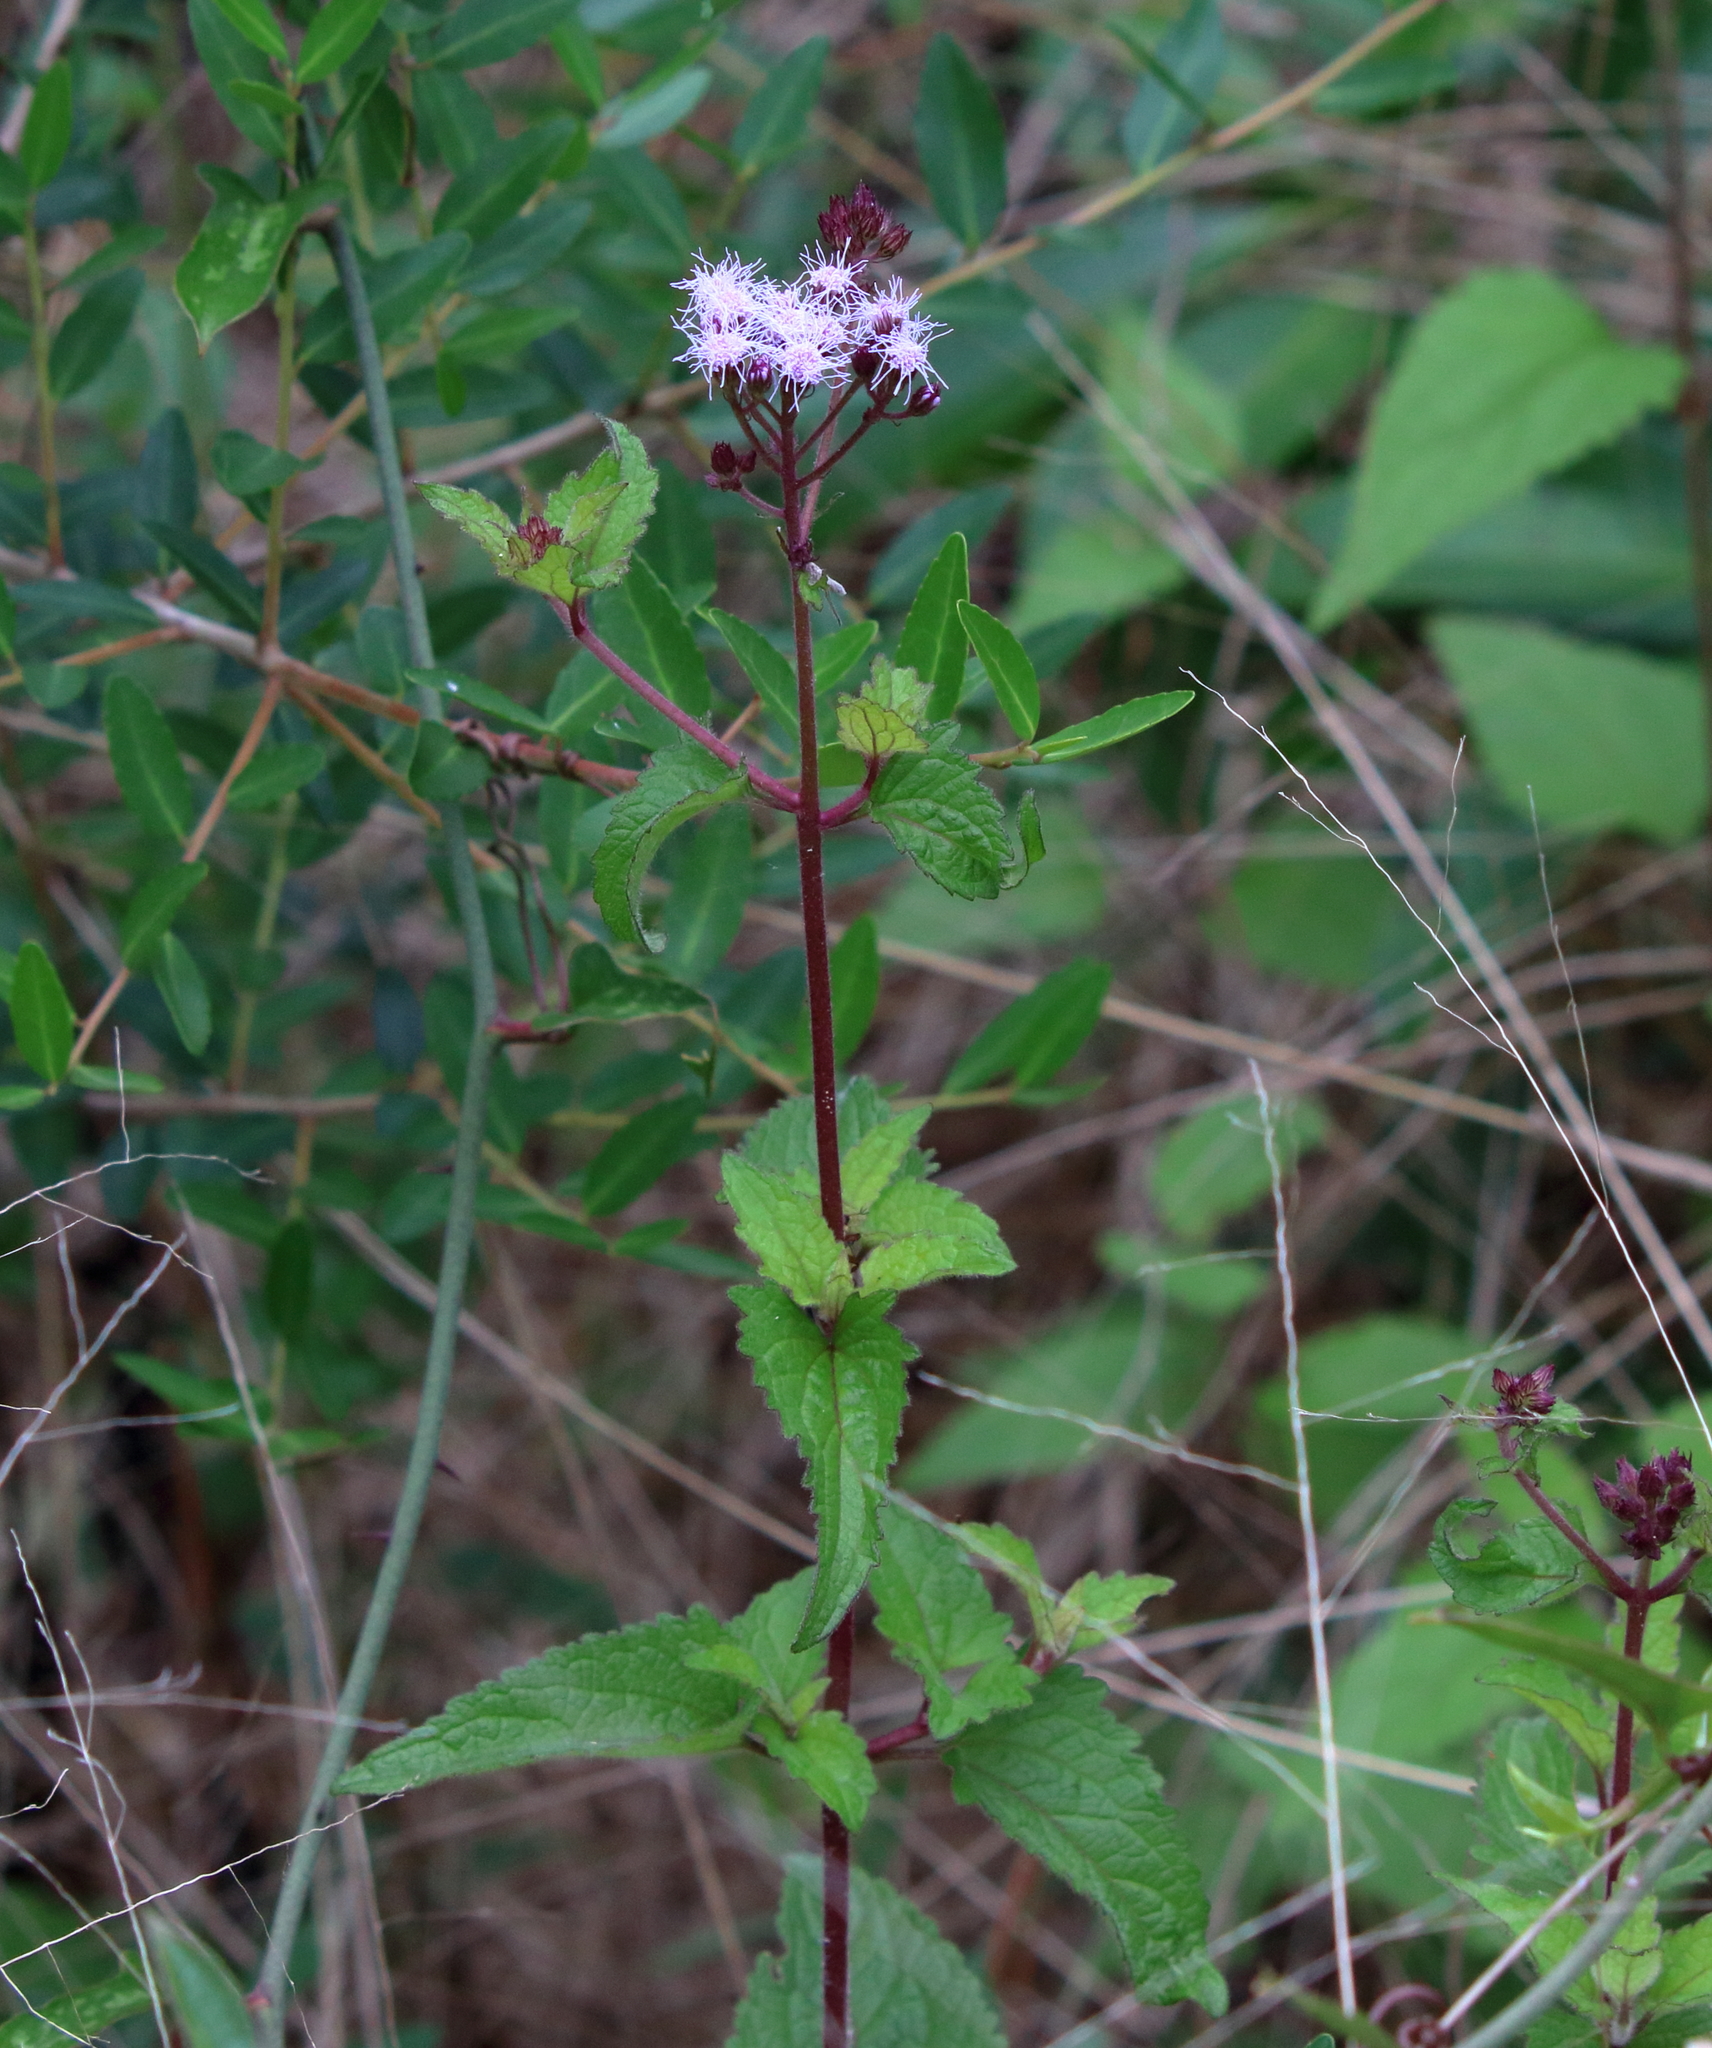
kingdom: Plantae
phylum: Tracheophyta
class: Magnoliopsida
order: Asterales
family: Asteraceae
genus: Conoclinium
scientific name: Conoclinium coelestinum
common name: Blue mistflower
